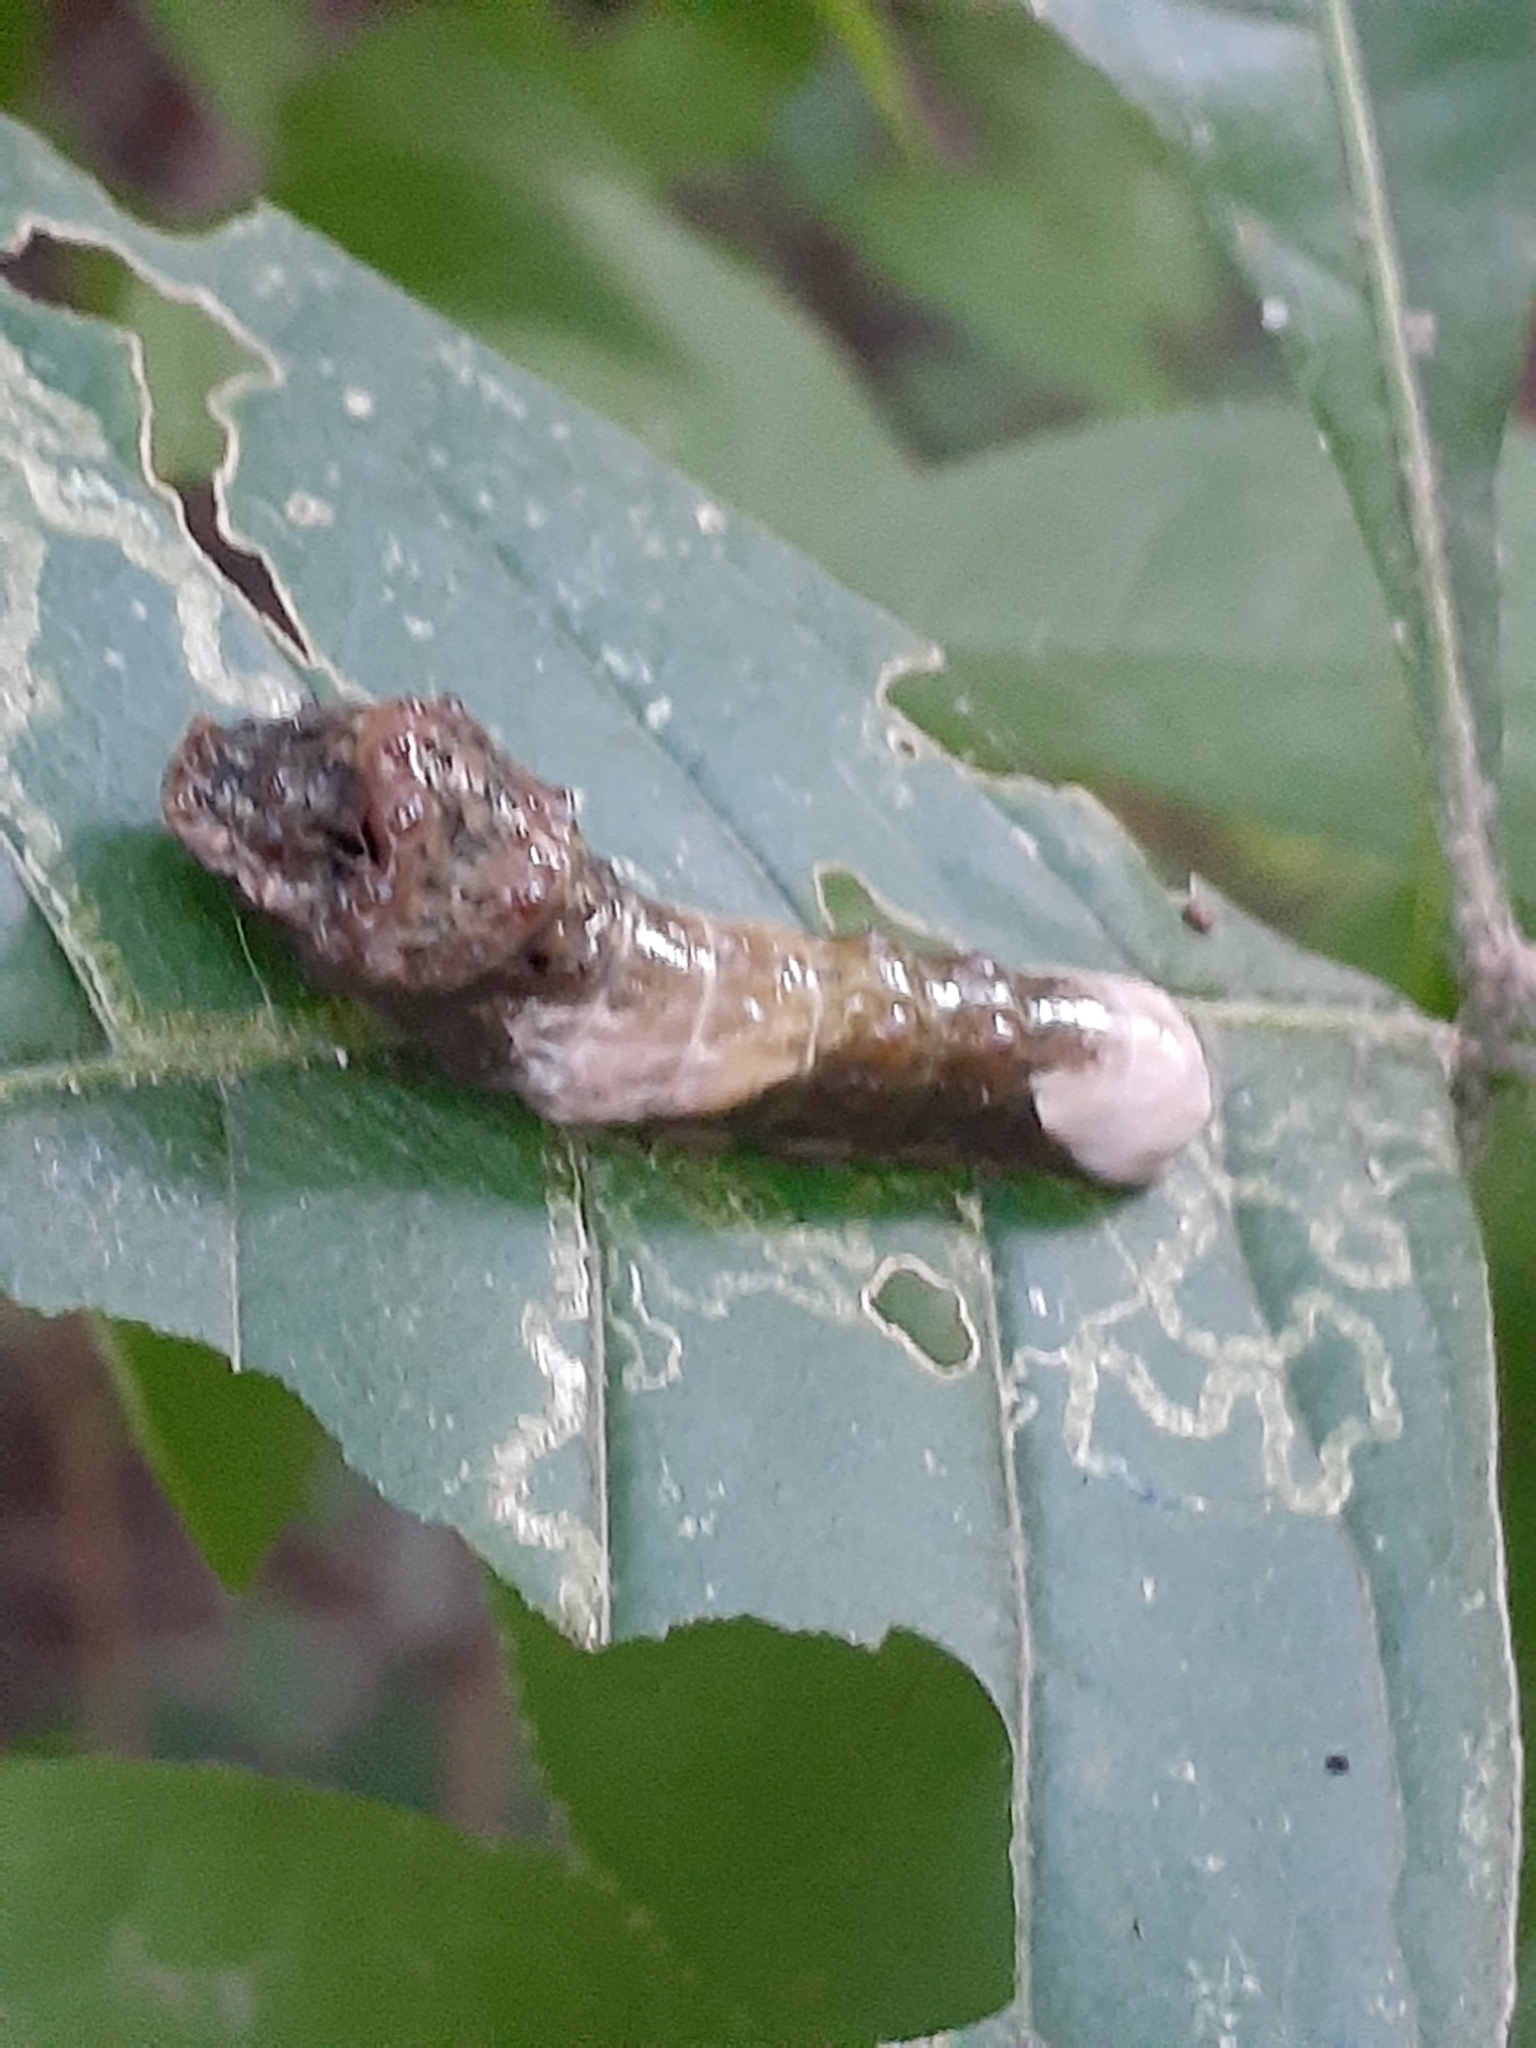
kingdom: Animalia
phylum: Arthropoda
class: Insecta
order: Lepidoptera
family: Papilionidae
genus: Papilio
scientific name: Papilio cresphontes
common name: Giant swallowtail
